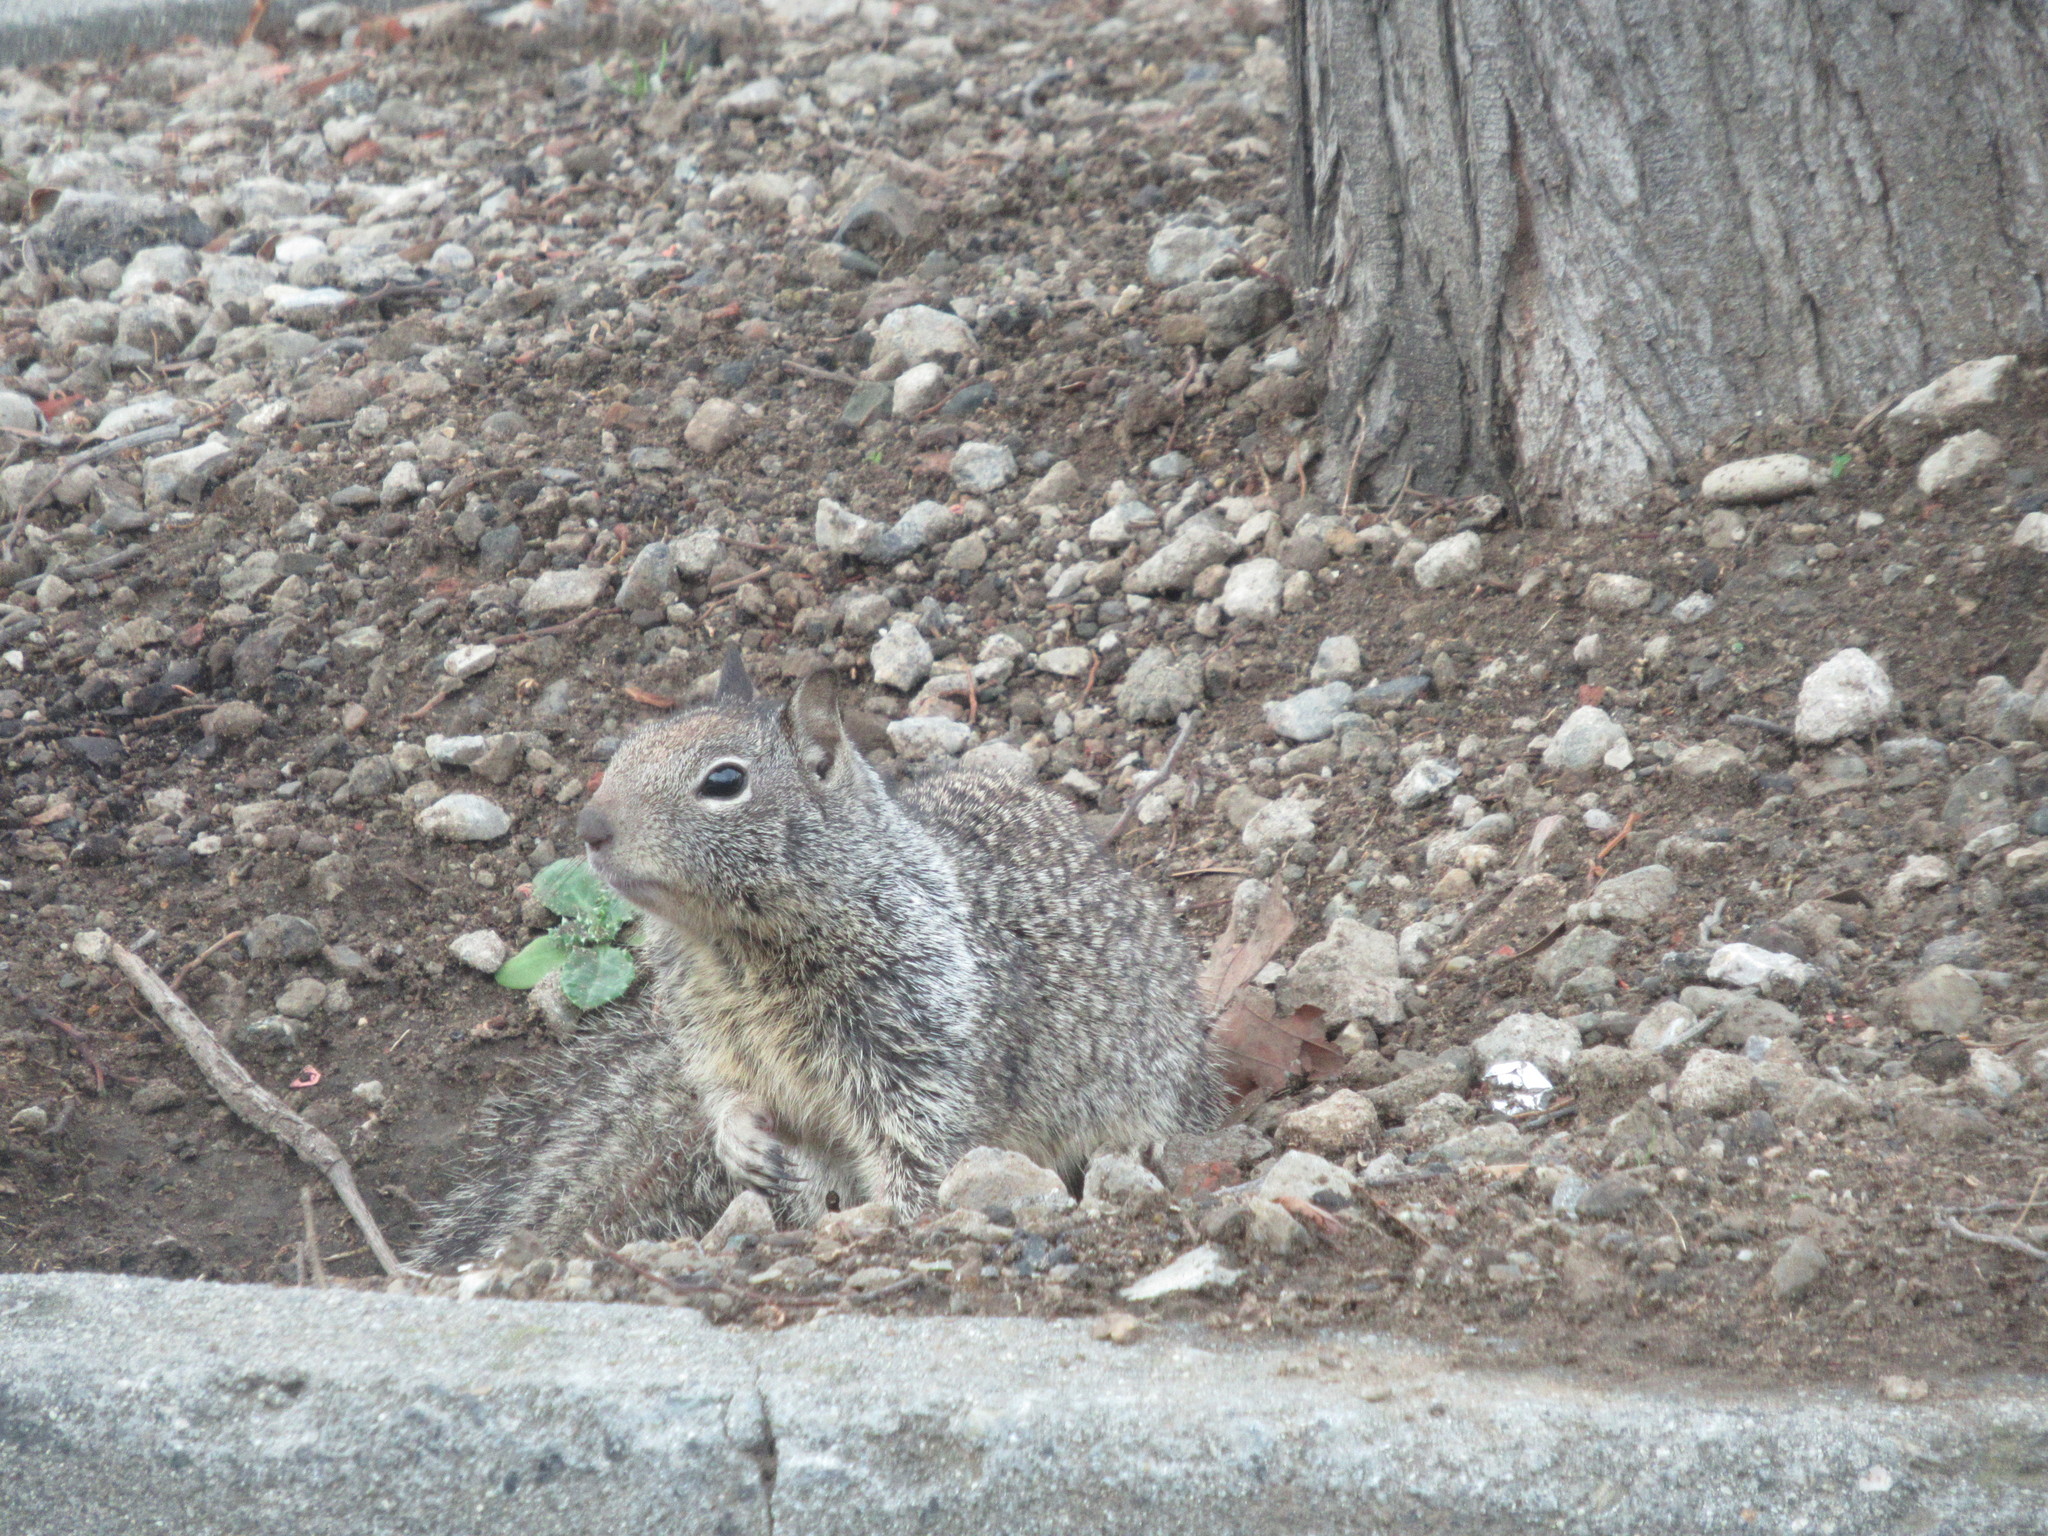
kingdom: Animalia
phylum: Chordata
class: Mammalia
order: Rodentia
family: Sciuridae
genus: Otospermophilus
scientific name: Otospermophilus beecheyi
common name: California ground squirrel
